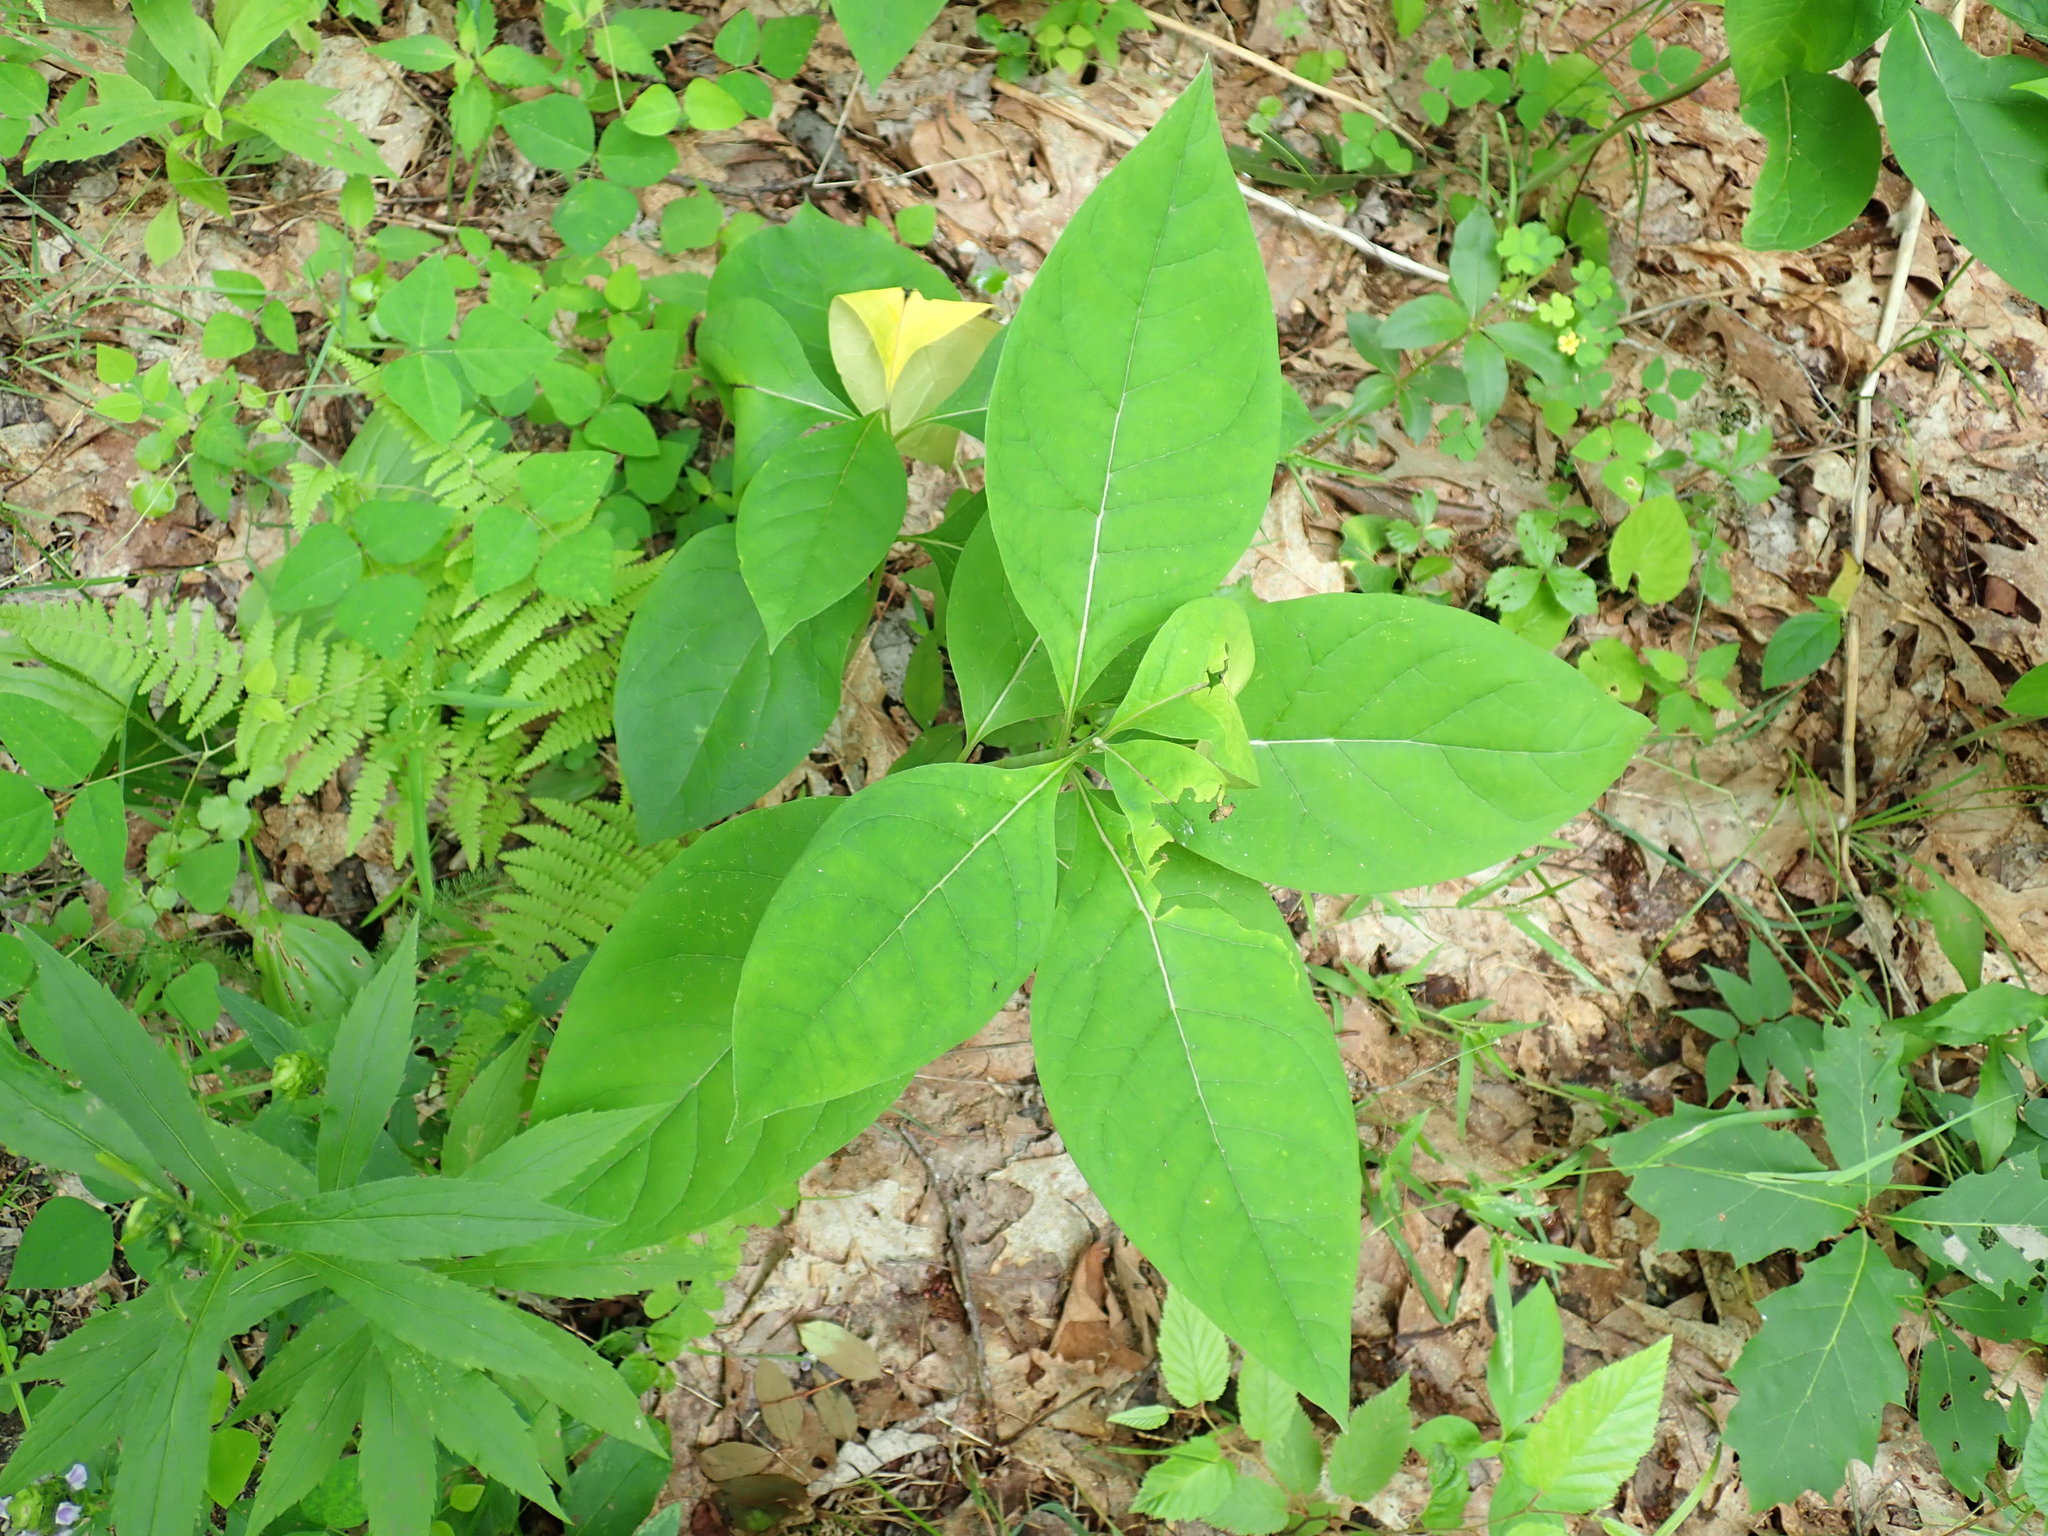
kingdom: Plantae
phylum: Tracheophyta
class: Magnoliopsida
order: Gentianales
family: Apocynaceae
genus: Asclepias
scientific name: Asclepias exaltata
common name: Poke milkweed
